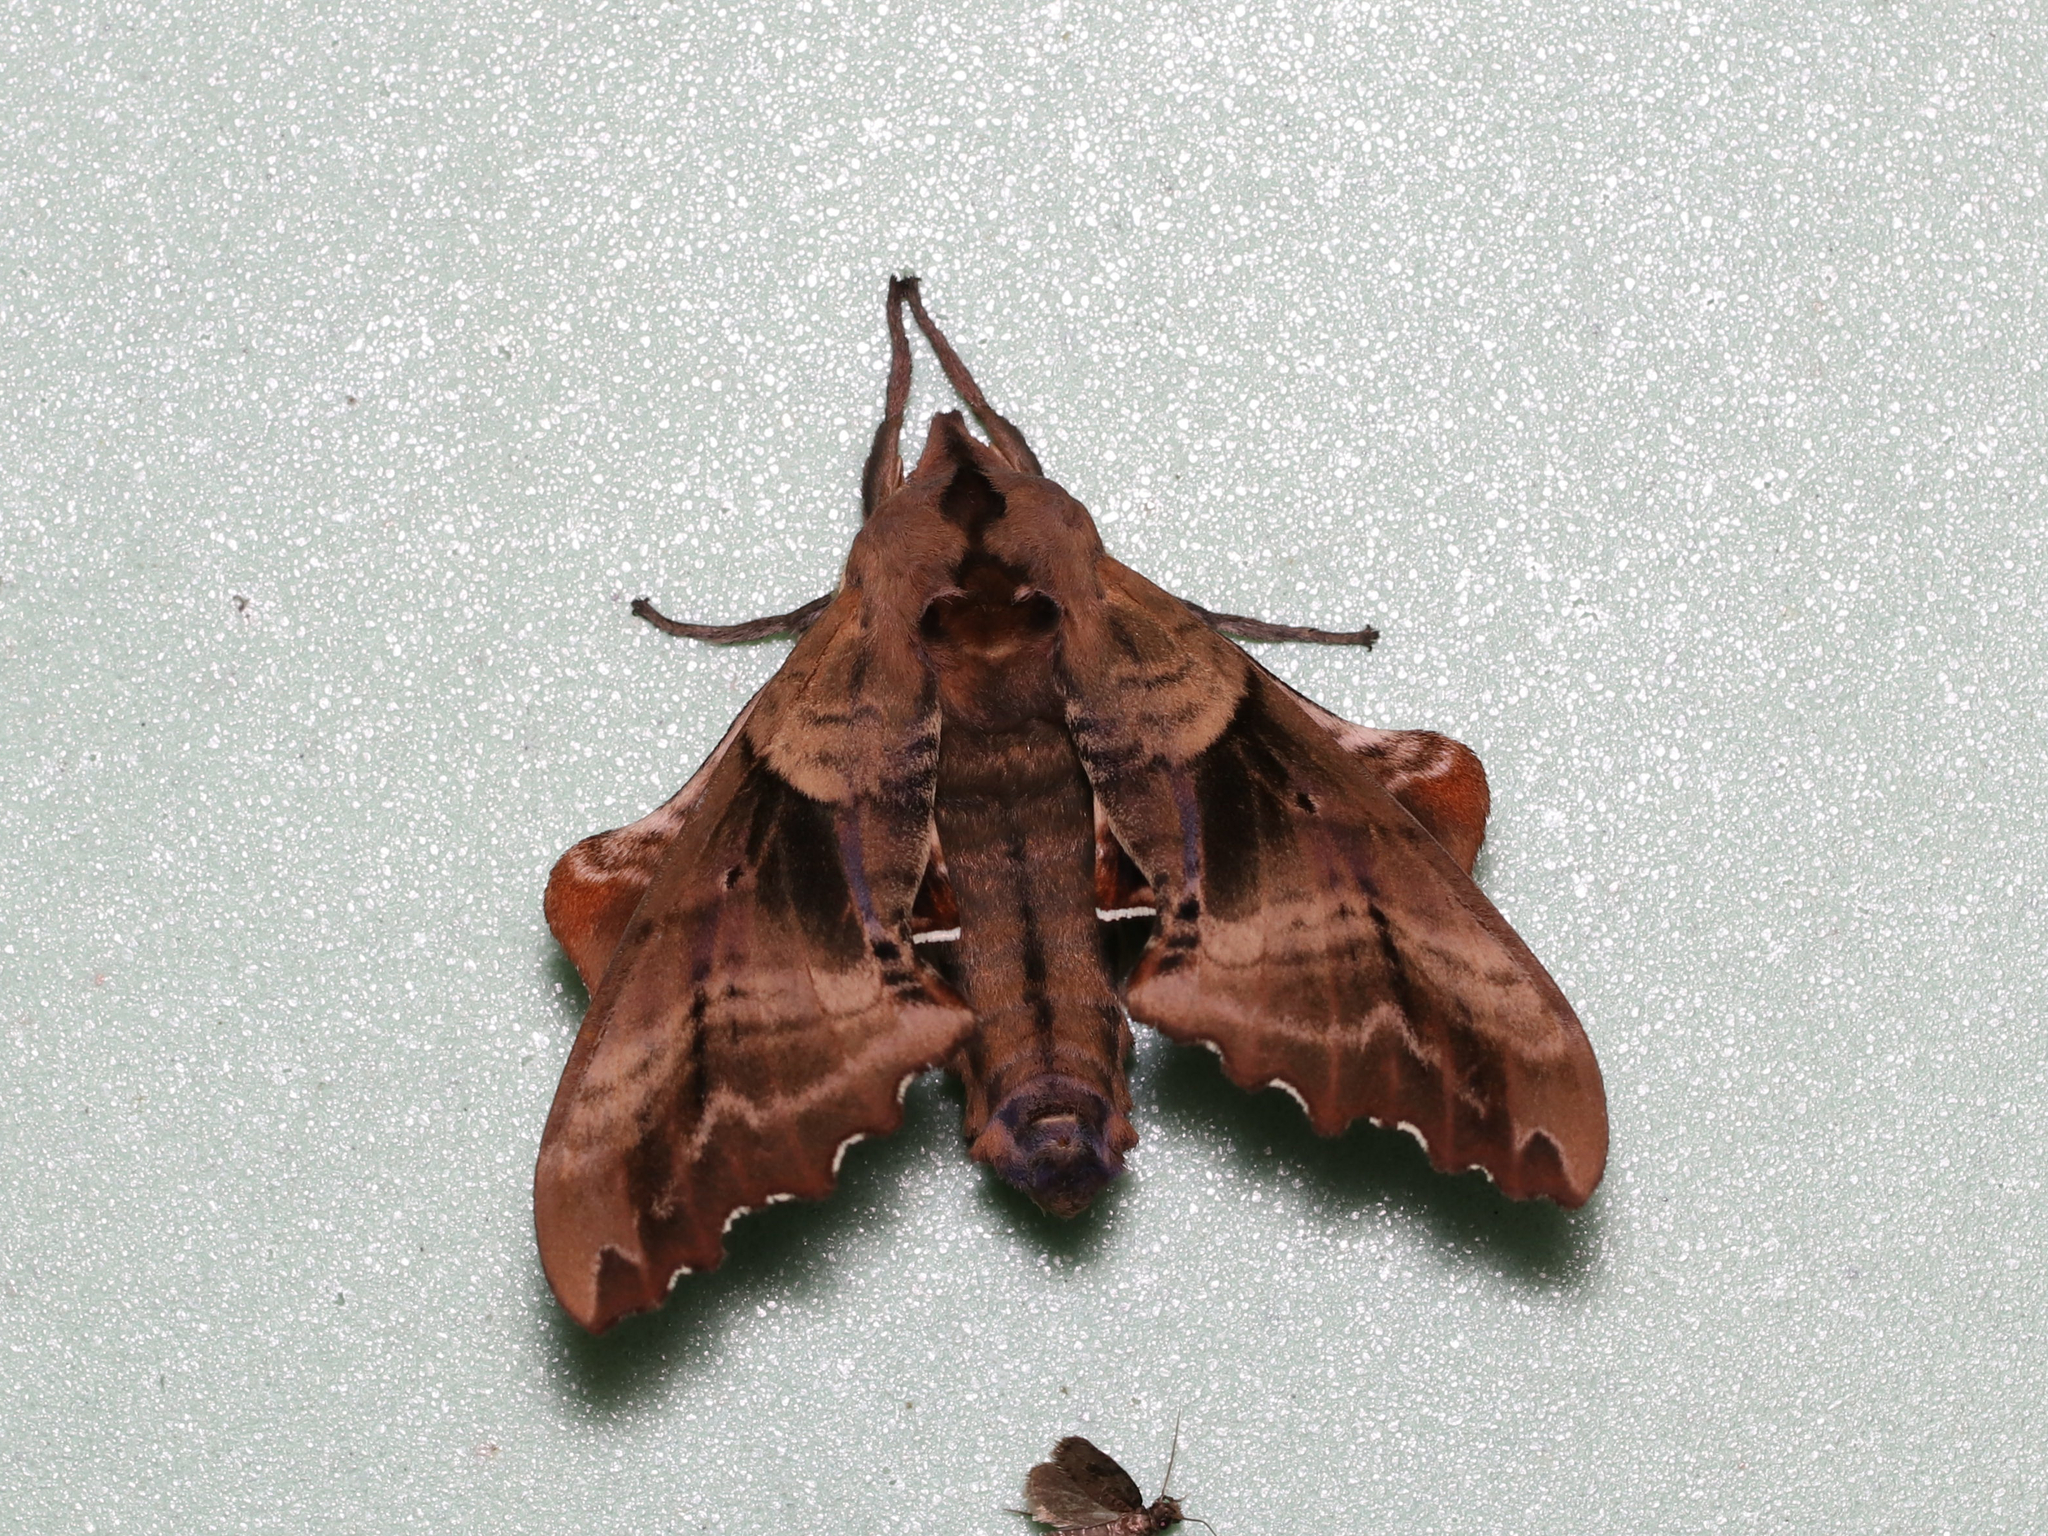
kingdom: Animalia
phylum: Arthropoda
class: Insecta
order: Lepidoptera
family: Sphingidae
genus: Paonias
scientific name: Paonias excaecata
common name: Blind-eyed sphinx
